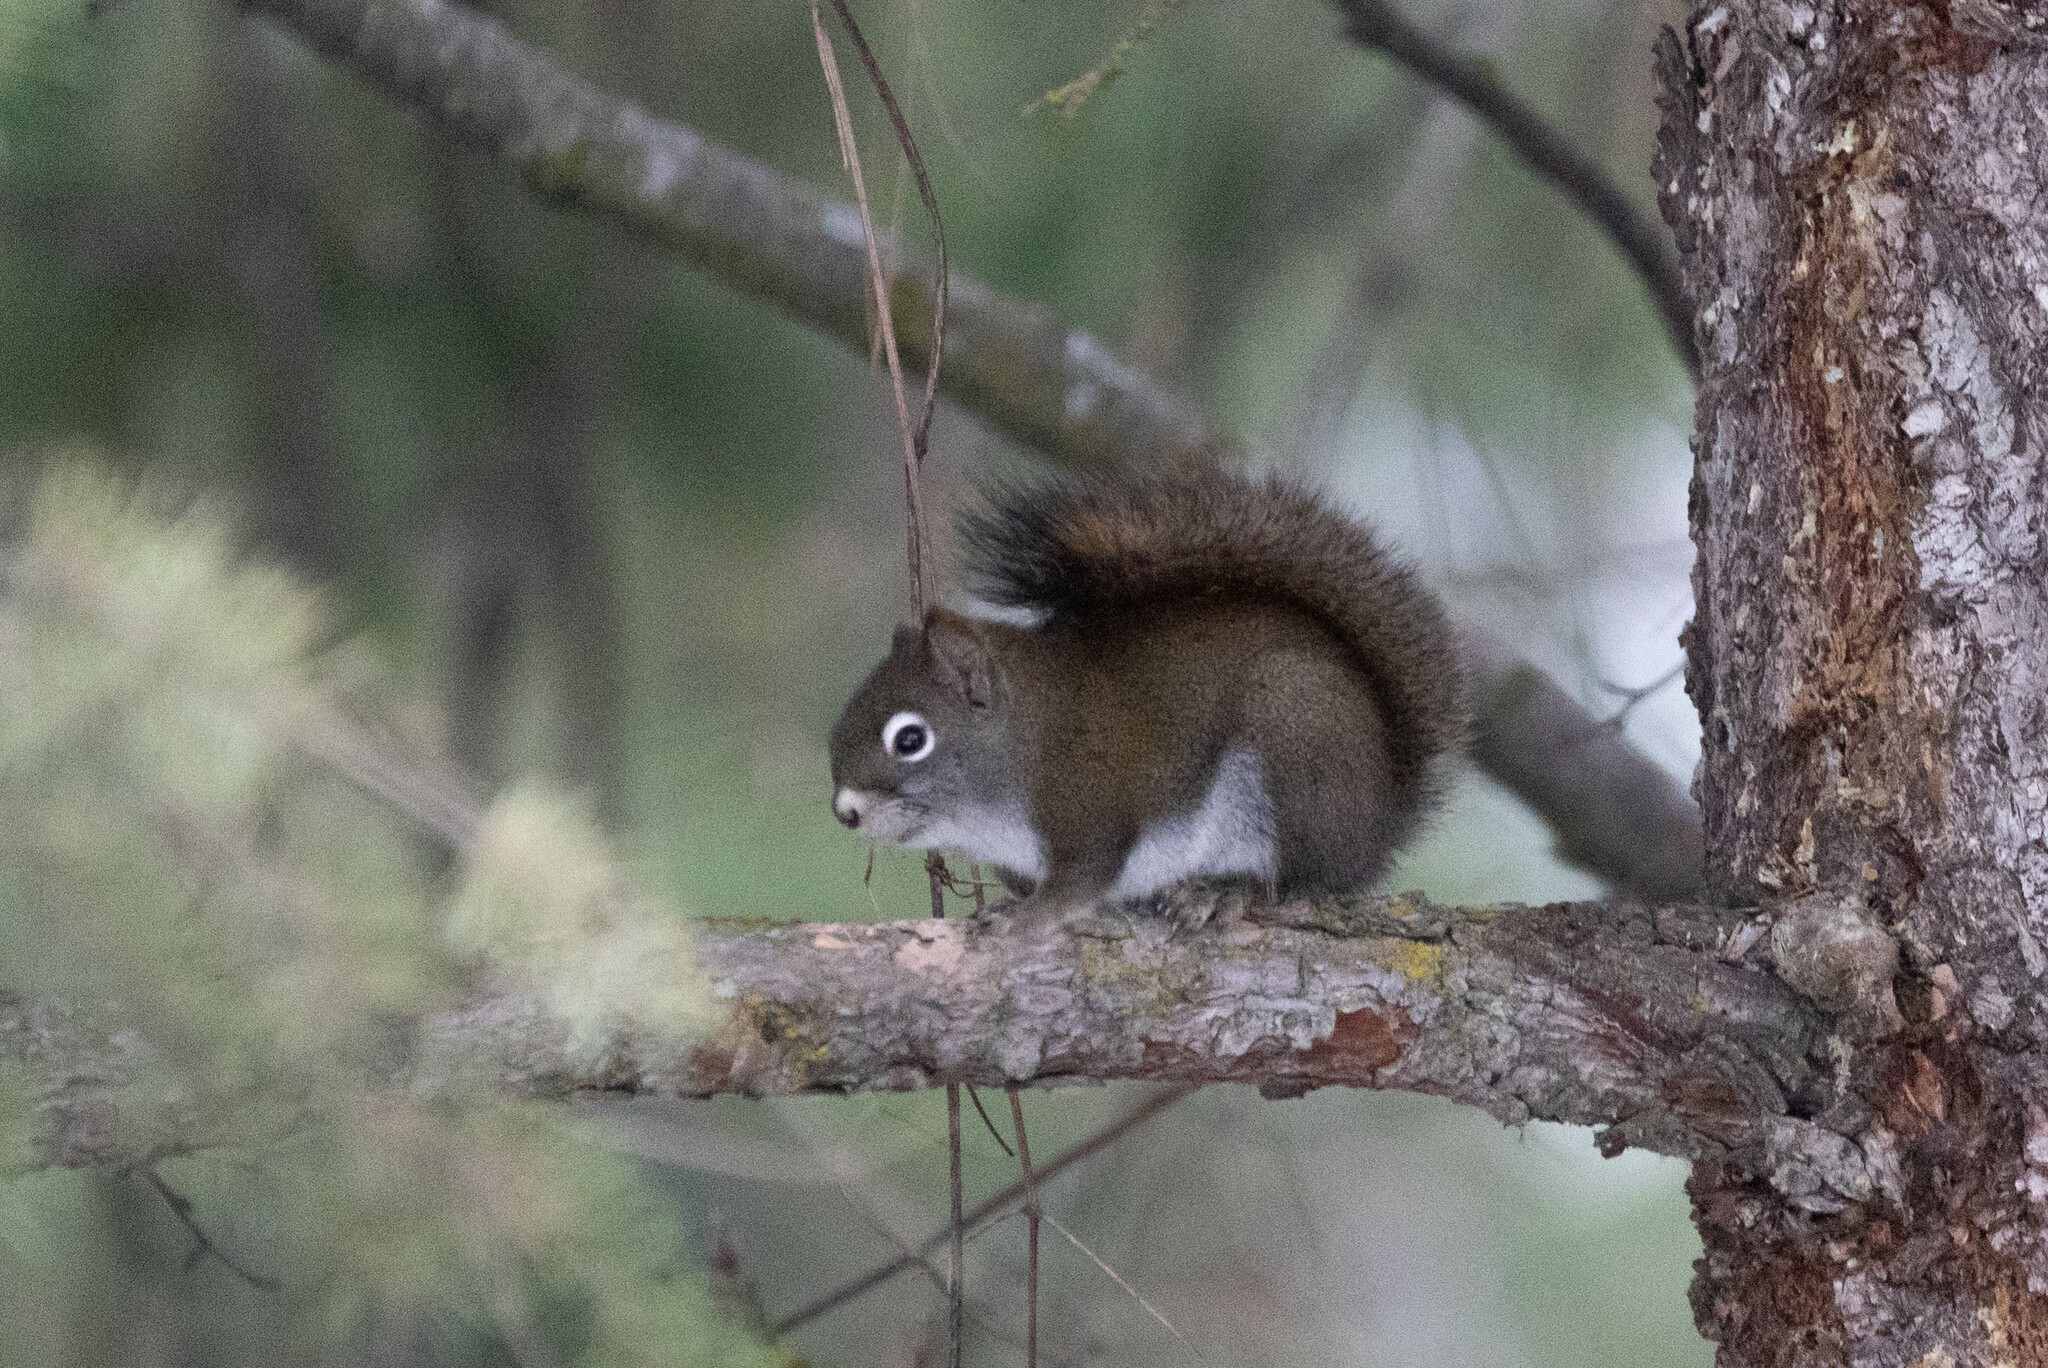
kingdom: Animalia
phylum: Chordata
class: Mammalia
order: Rodentia
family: Sciuridae
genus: Tamiasciurus
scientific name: Tamiasciurus hudsonicus
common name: Red squirrel
